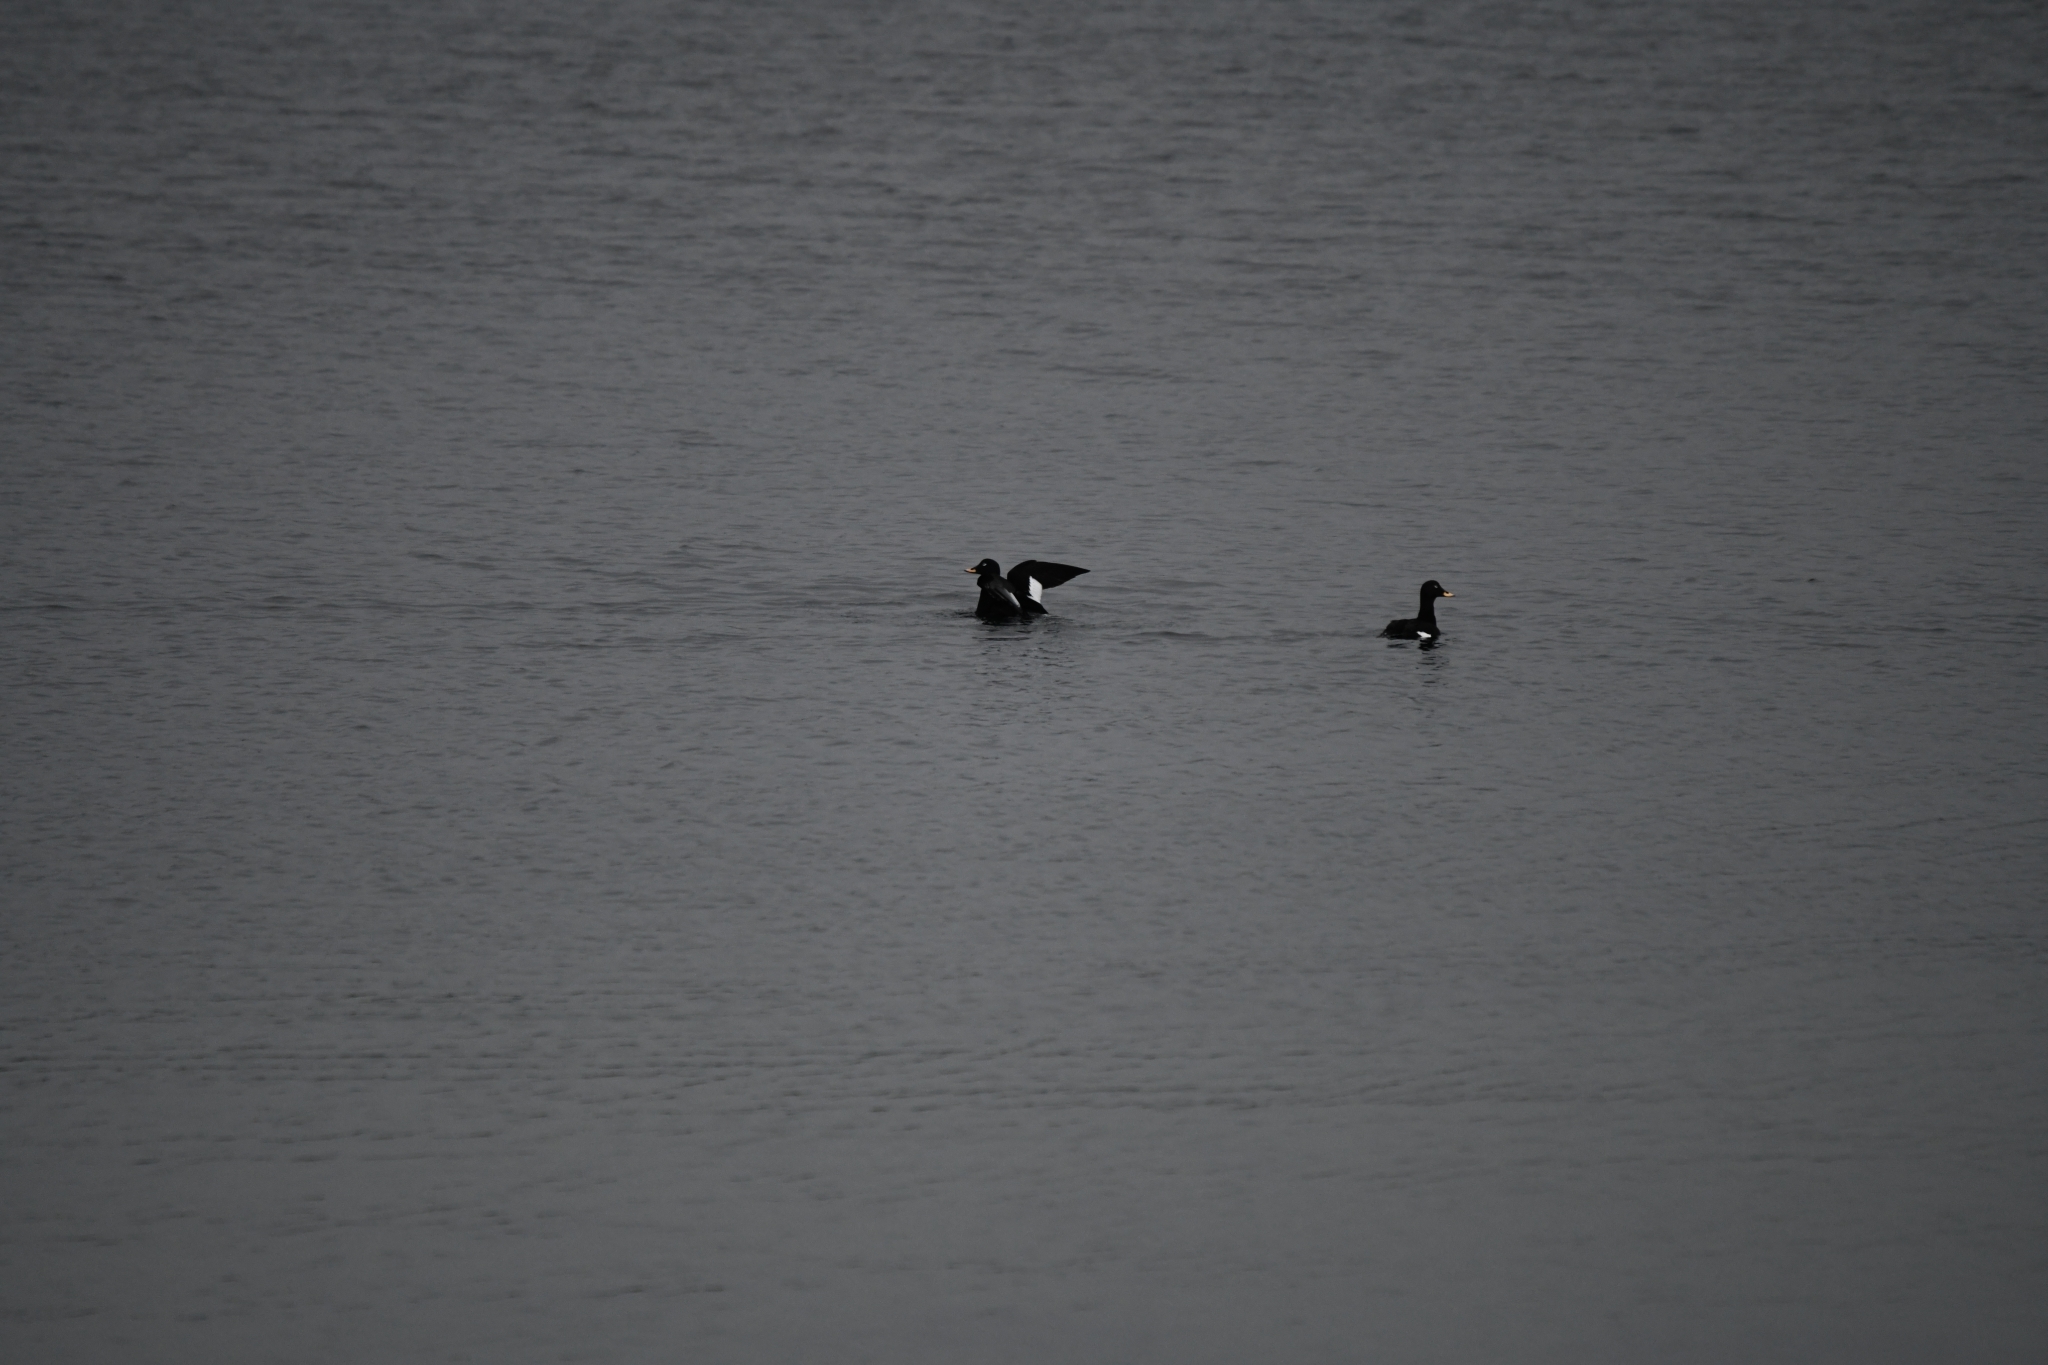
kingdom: Animalia
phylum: Chordata
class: Aves
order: Anseriformes
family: Anatidae
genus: Melanitta
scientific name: Melanitta fusca
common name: Velvet scoter
